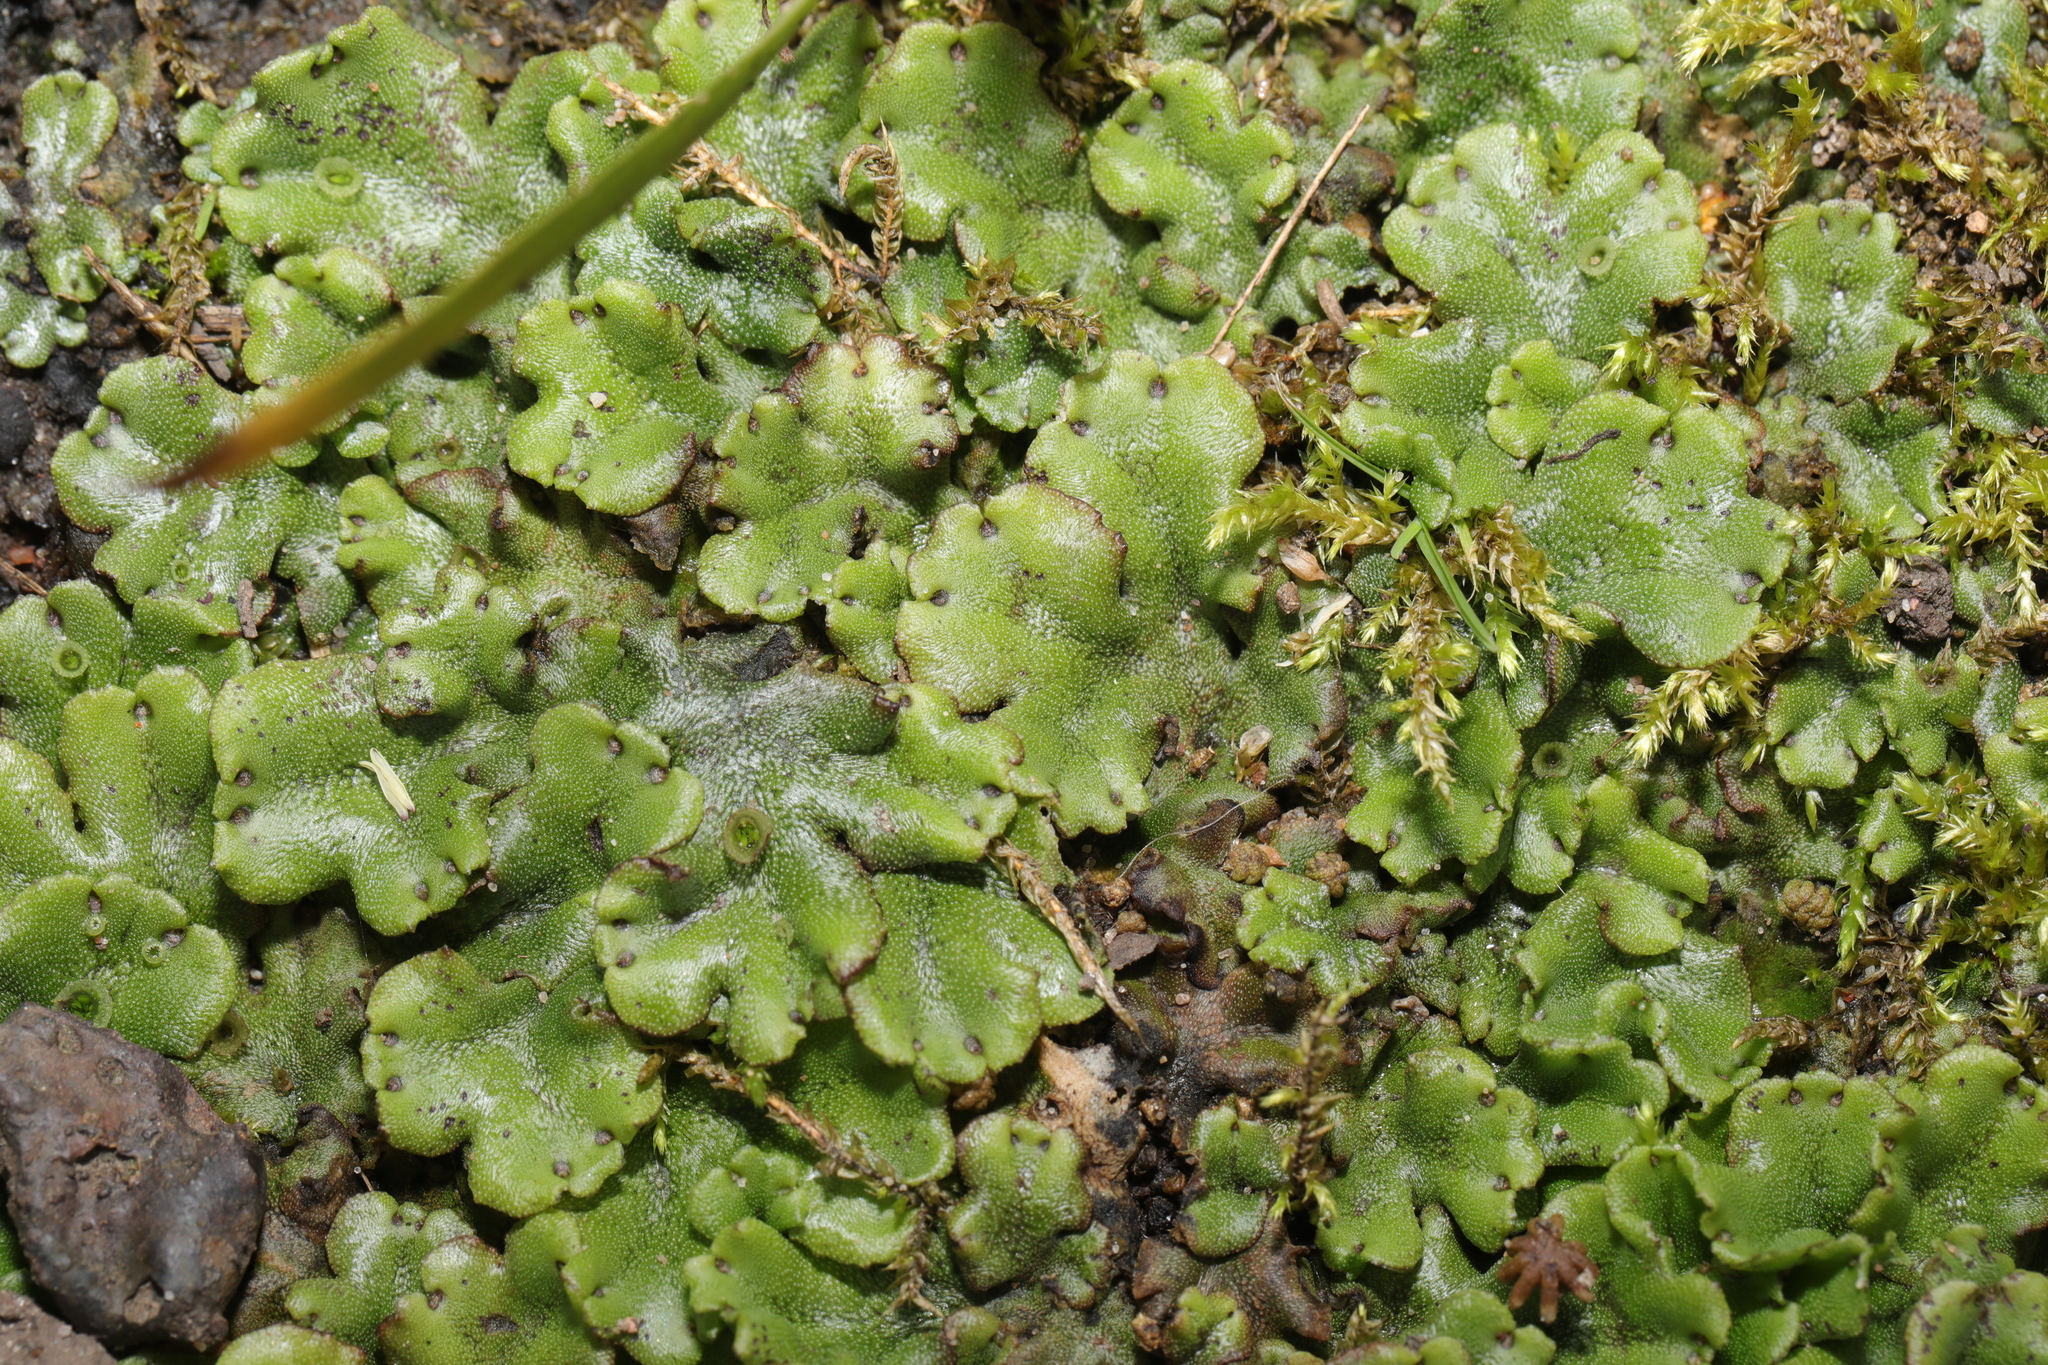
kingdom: Plantae
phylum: Marchantiophyta
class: Marchantiopsida
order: Marchantiales
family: Marchantiaceae
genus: Marchantia
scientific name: Marchantia polymorpha
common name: Common liverwort
